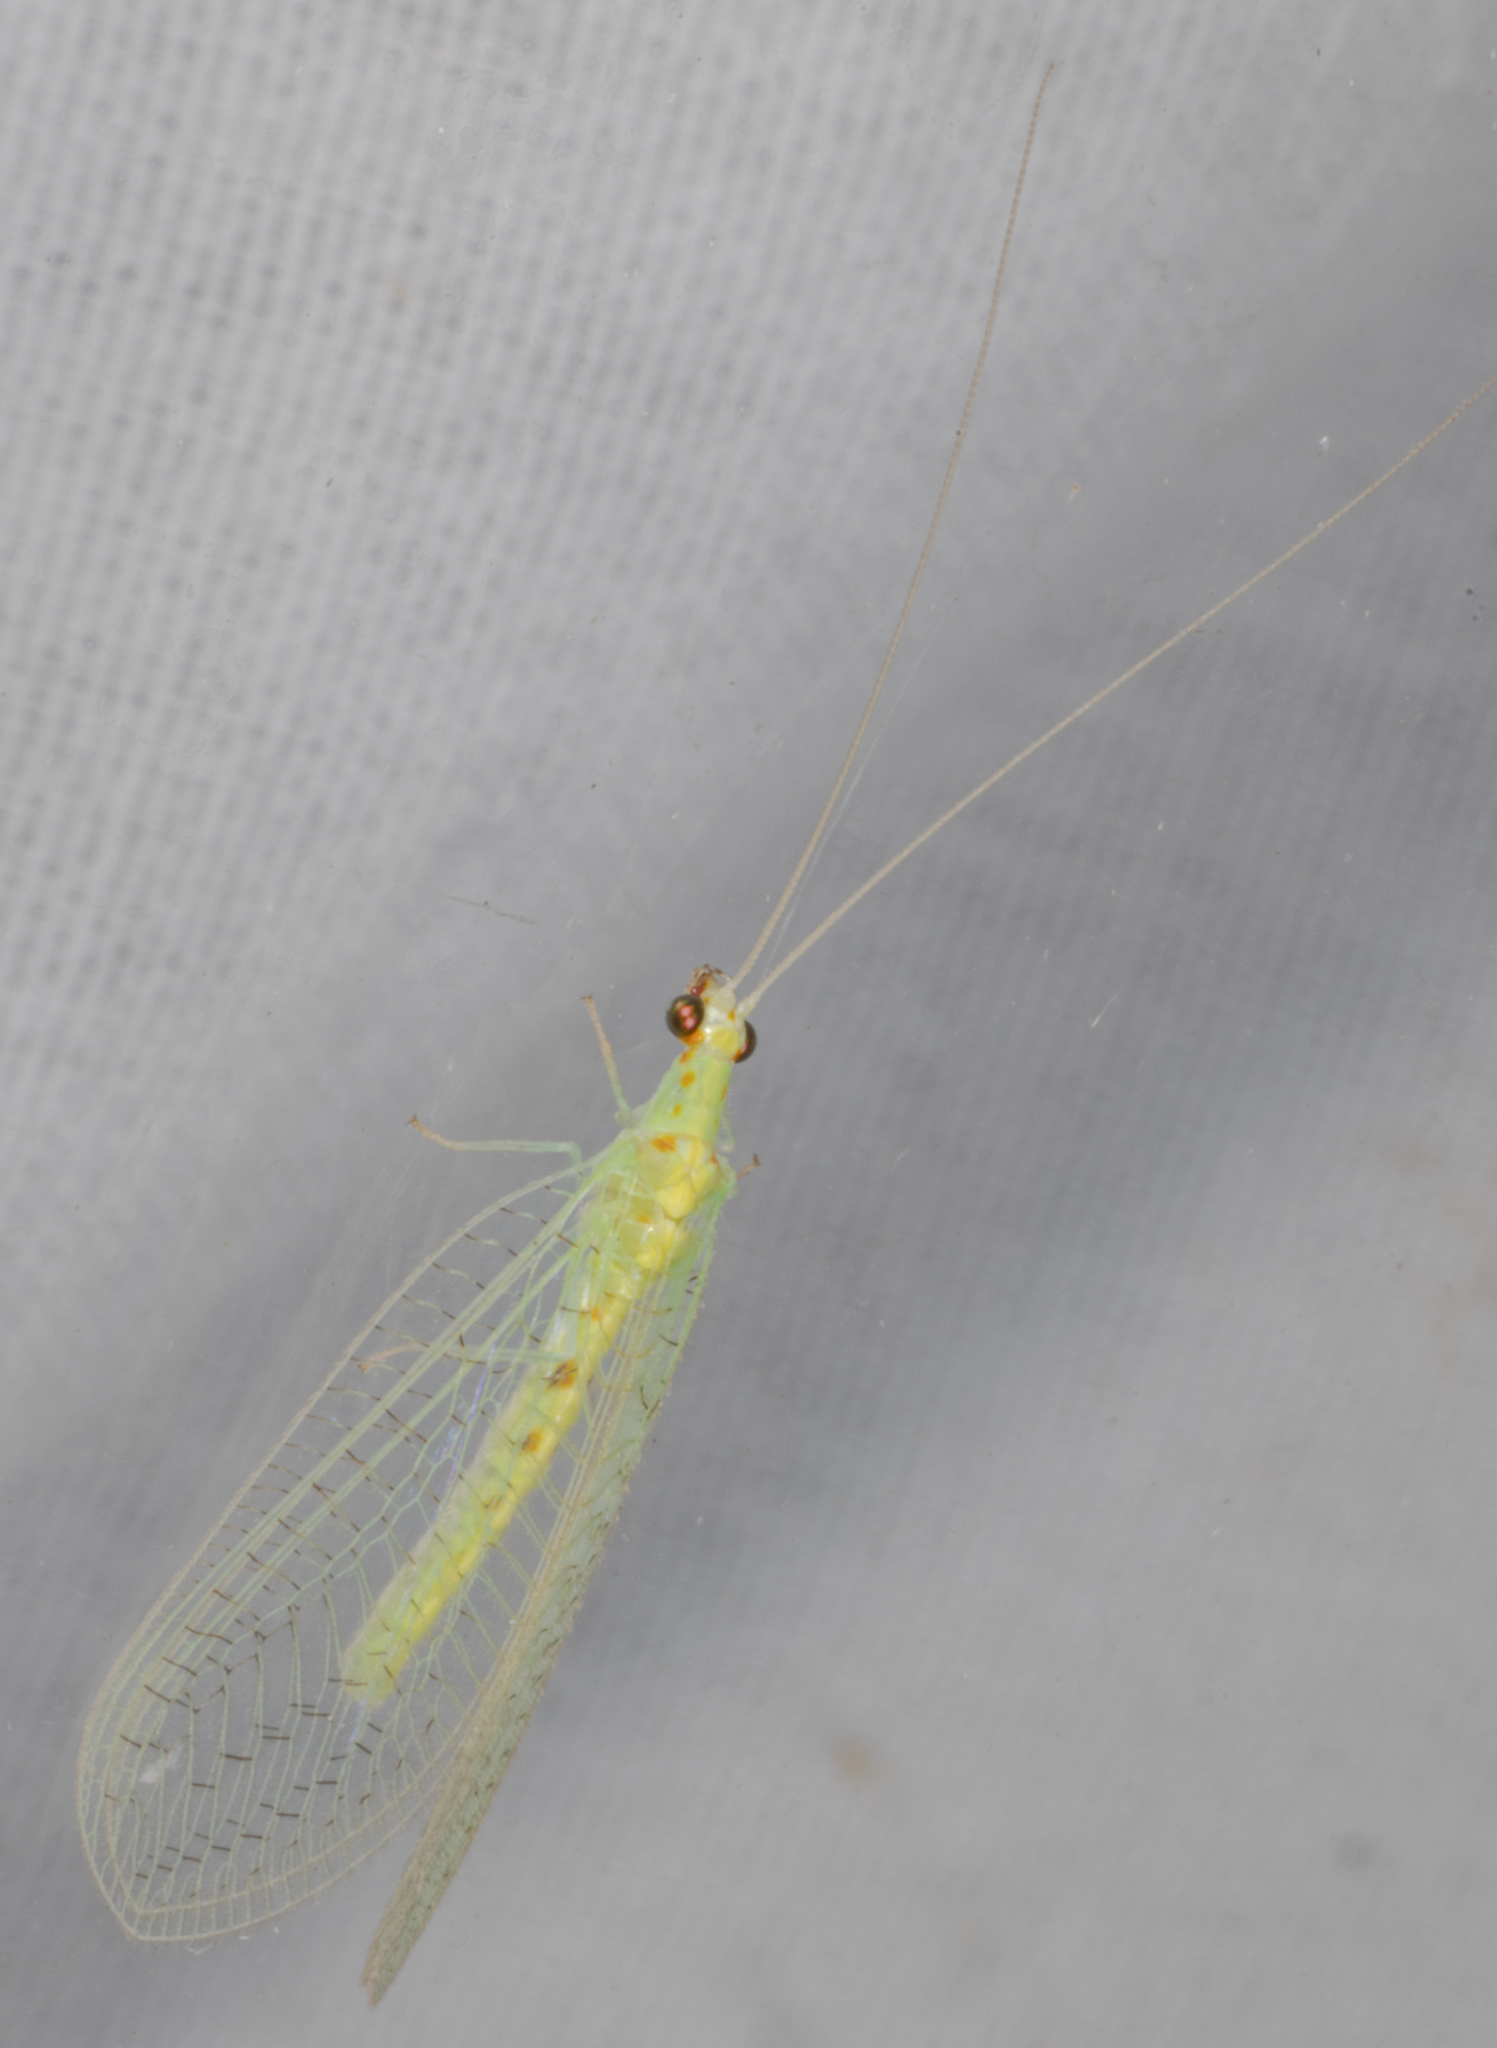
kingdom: Animalia
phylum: Arthropoda
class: Insecta
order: Neuroptera
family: Chrysopidae
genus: Chrysopa
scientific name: Chrysopa quadripunctata
